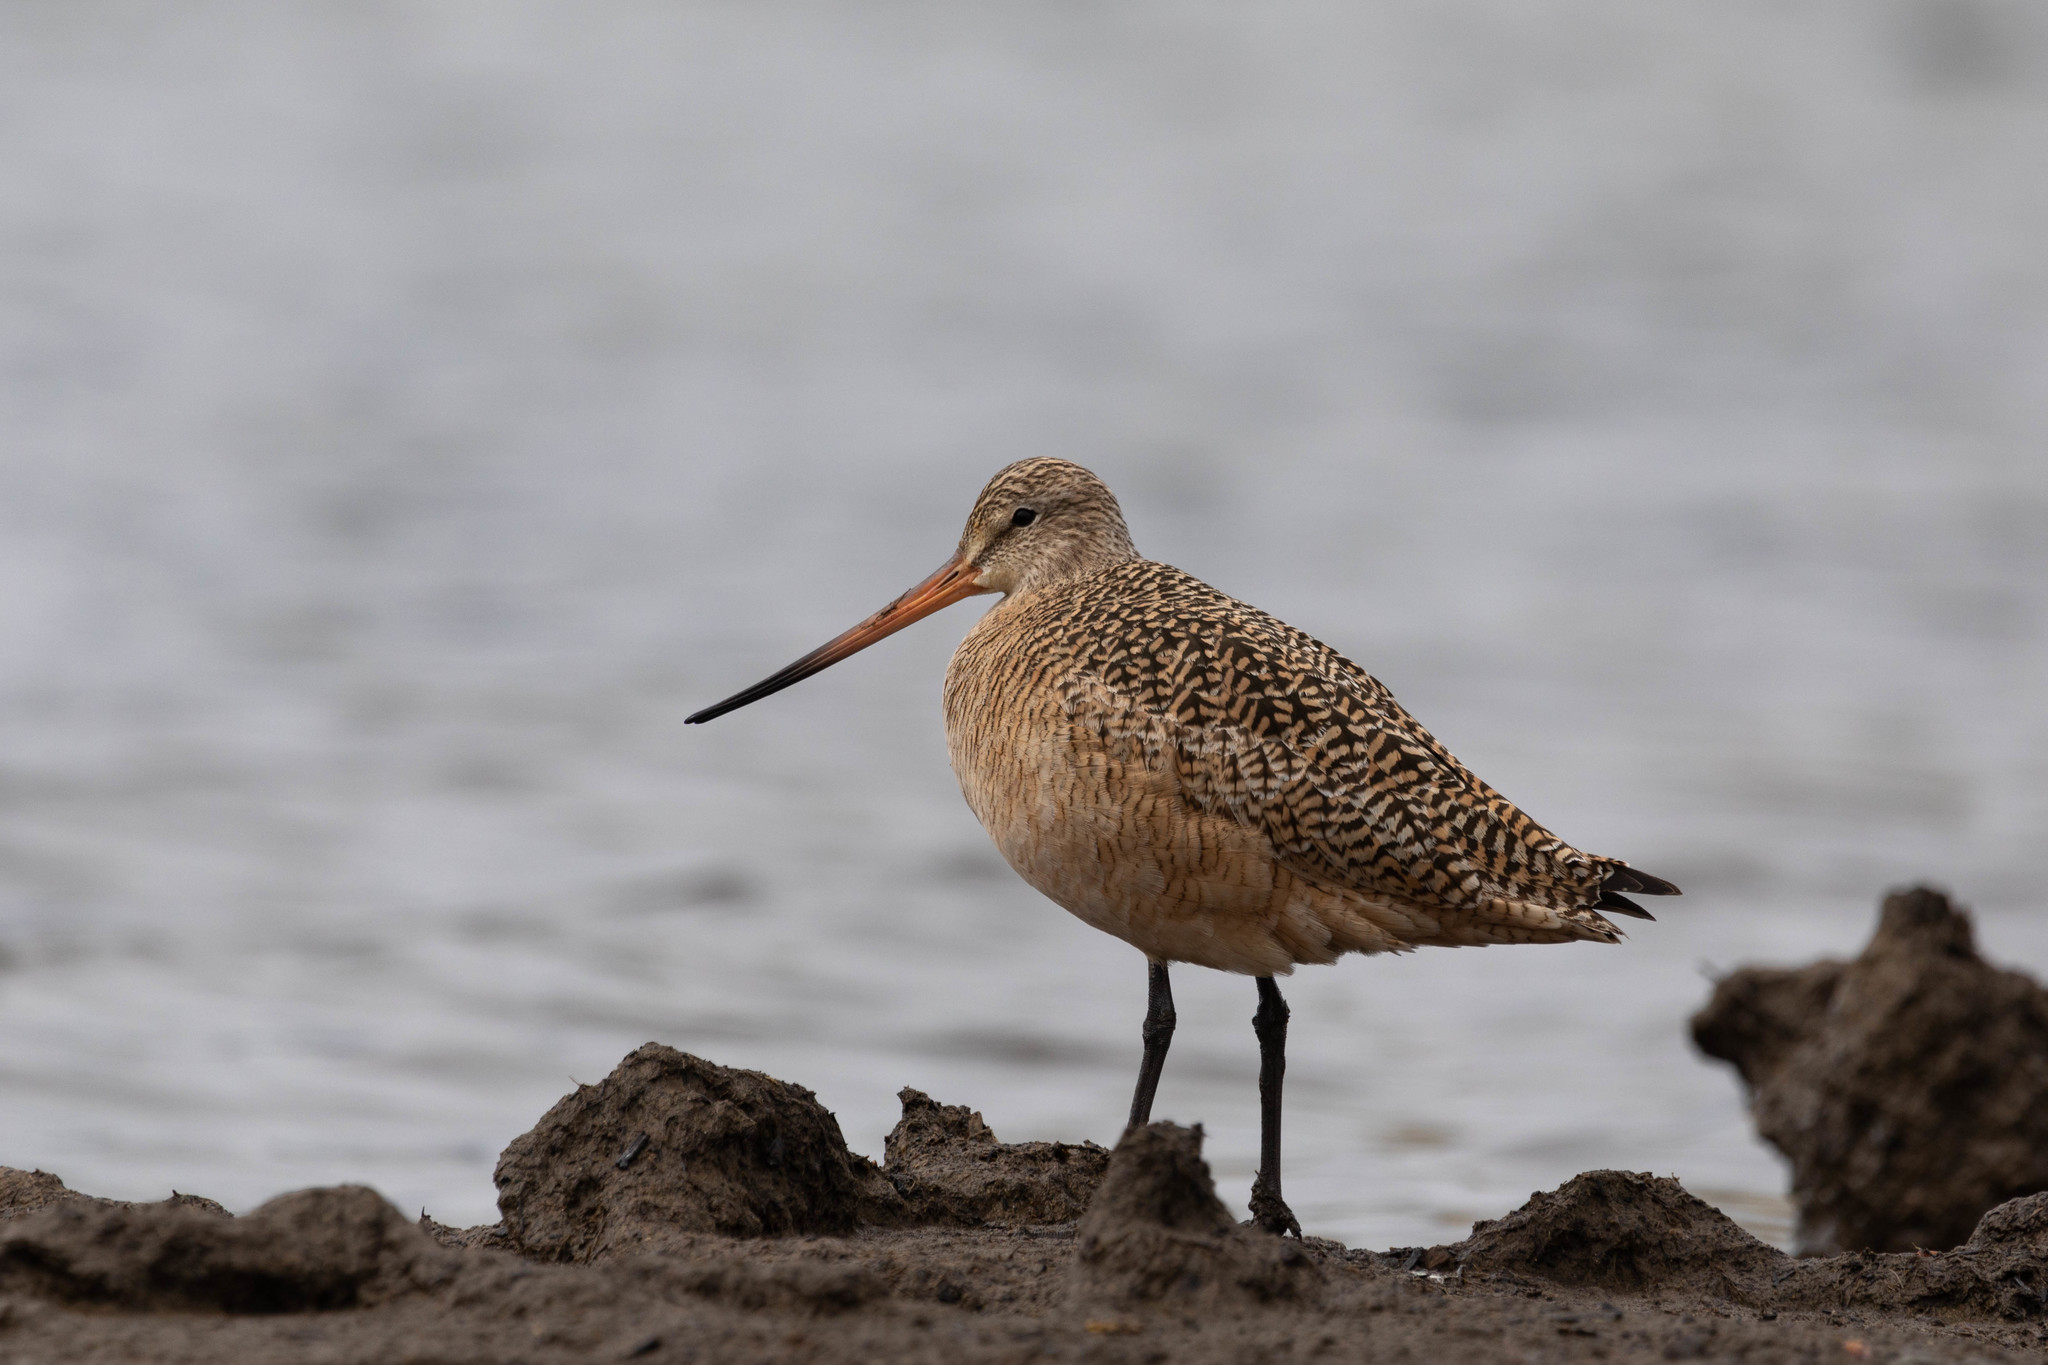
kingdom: Animalia
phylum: Chordata
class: Aves
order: Charadriiformes
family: Scolopacidae
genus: Limosa
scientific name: Limosa fedoa
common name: Marbled godwit
